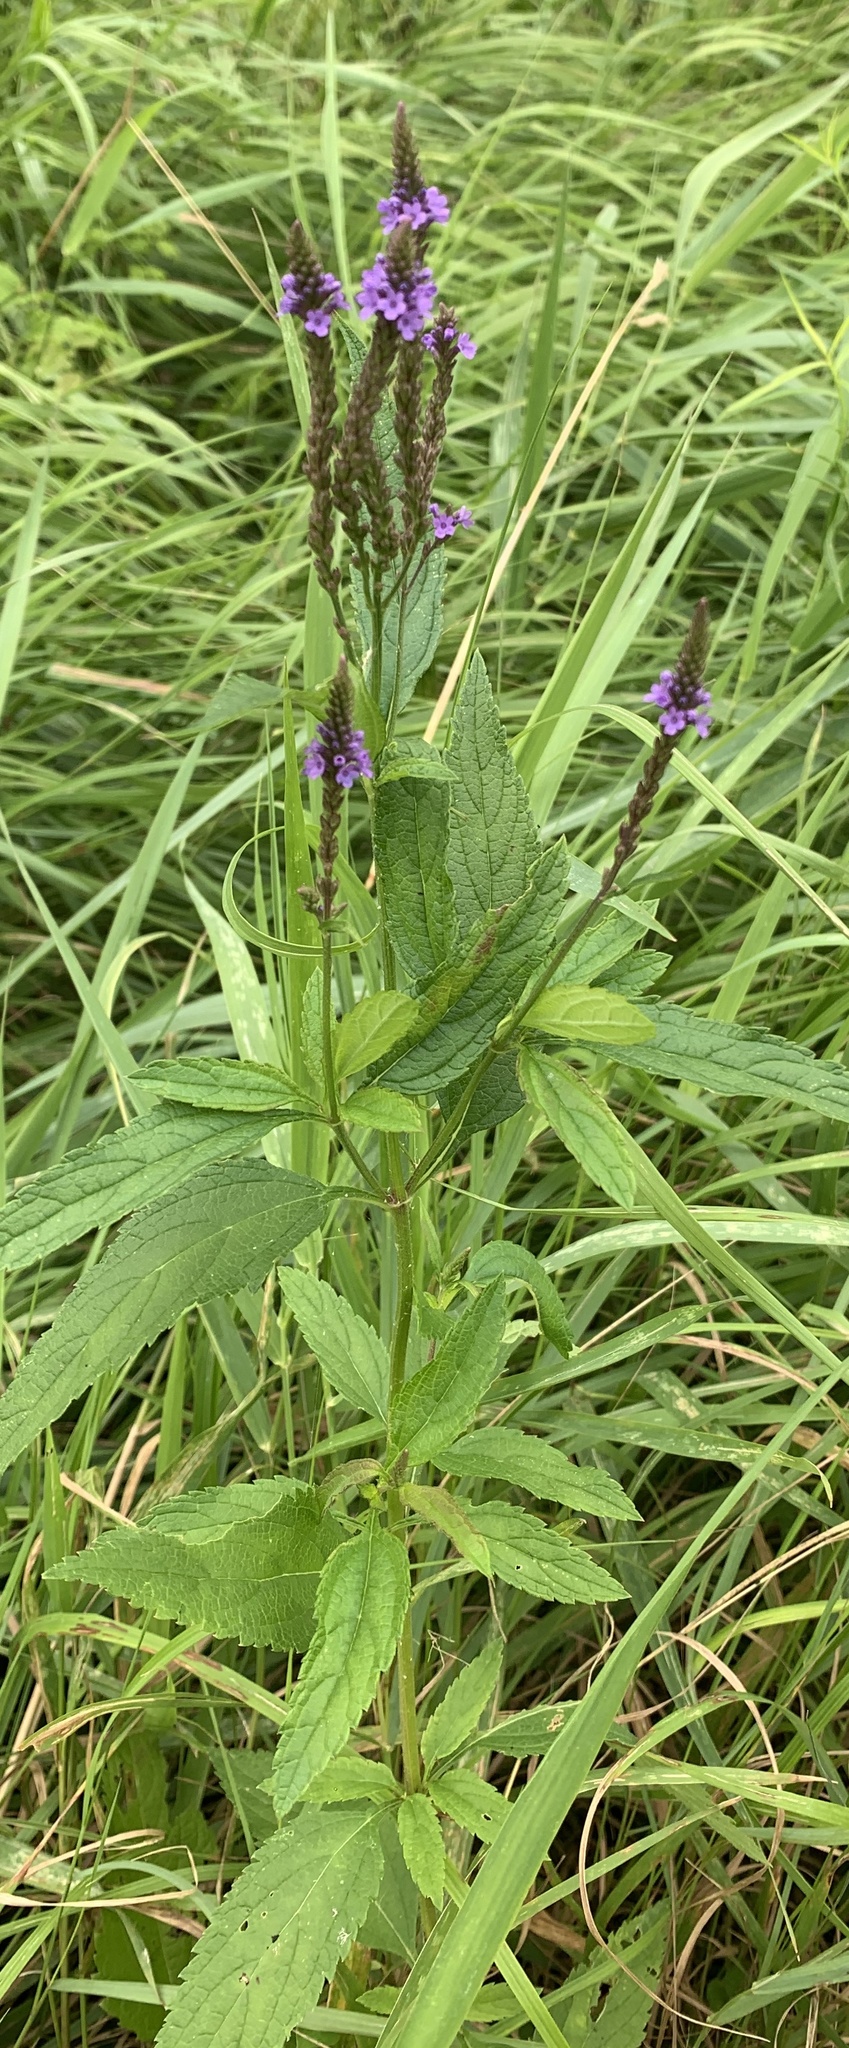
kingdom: Plantae
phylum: Tracheophyta
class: Magnoliopsida
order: Lamiales
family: Verbenaceae
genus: Verbena
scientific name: Verbena hastata
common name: American blue vervain
